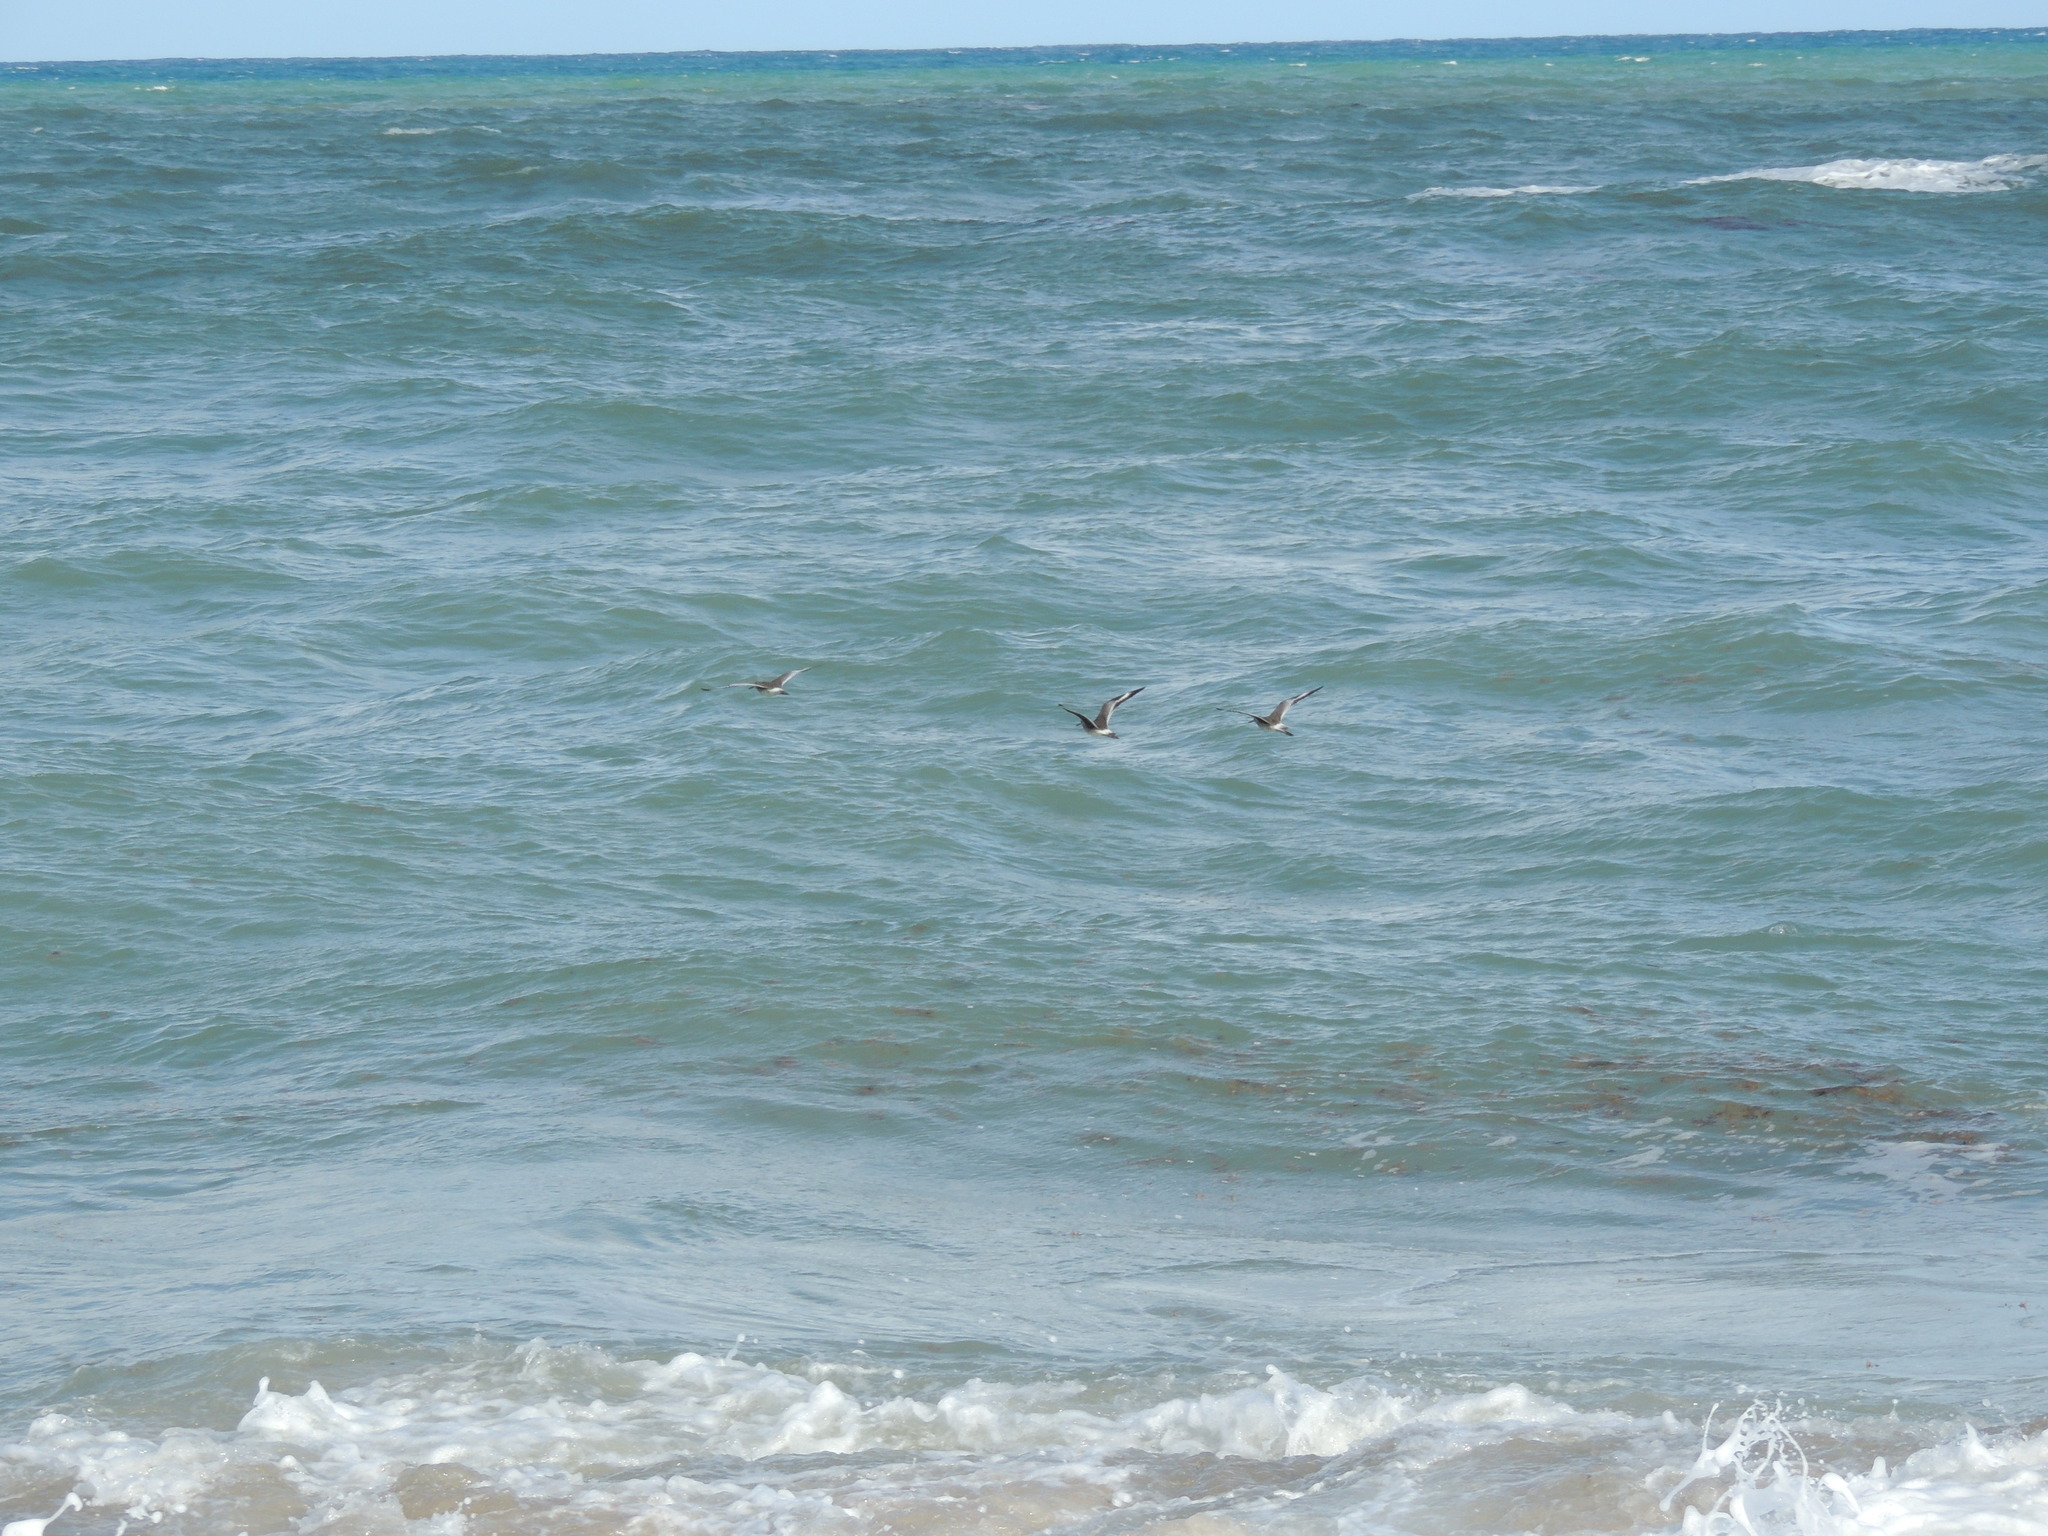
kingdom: Animalia
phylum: Chordata
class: Aves
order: Charadriiformes
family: Scolopacidae
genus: Tringa
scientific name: Tringa semipalmata
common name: Willet
